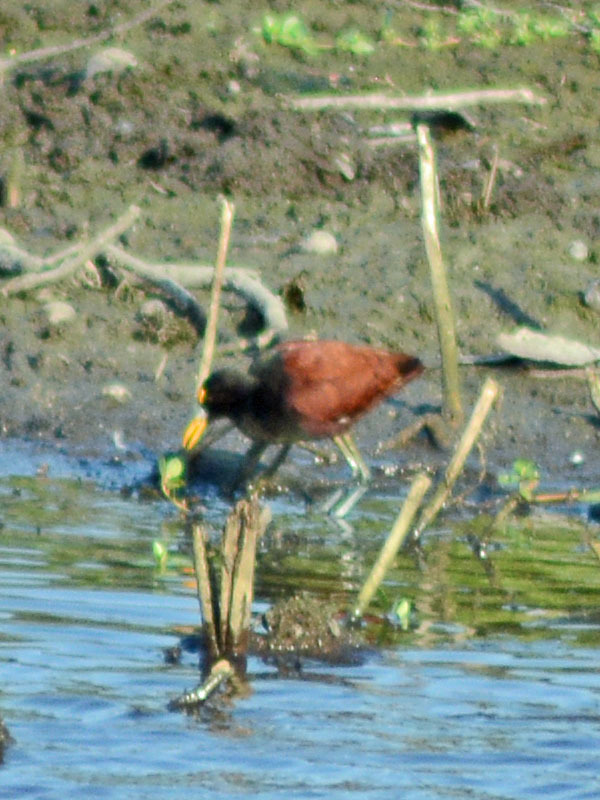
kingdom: Animalia
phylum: Chordata
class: Aves
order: Charadriiformes
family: Jacanidae
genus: Jacana
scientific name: Jacana spinosa
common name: Northern jacana
